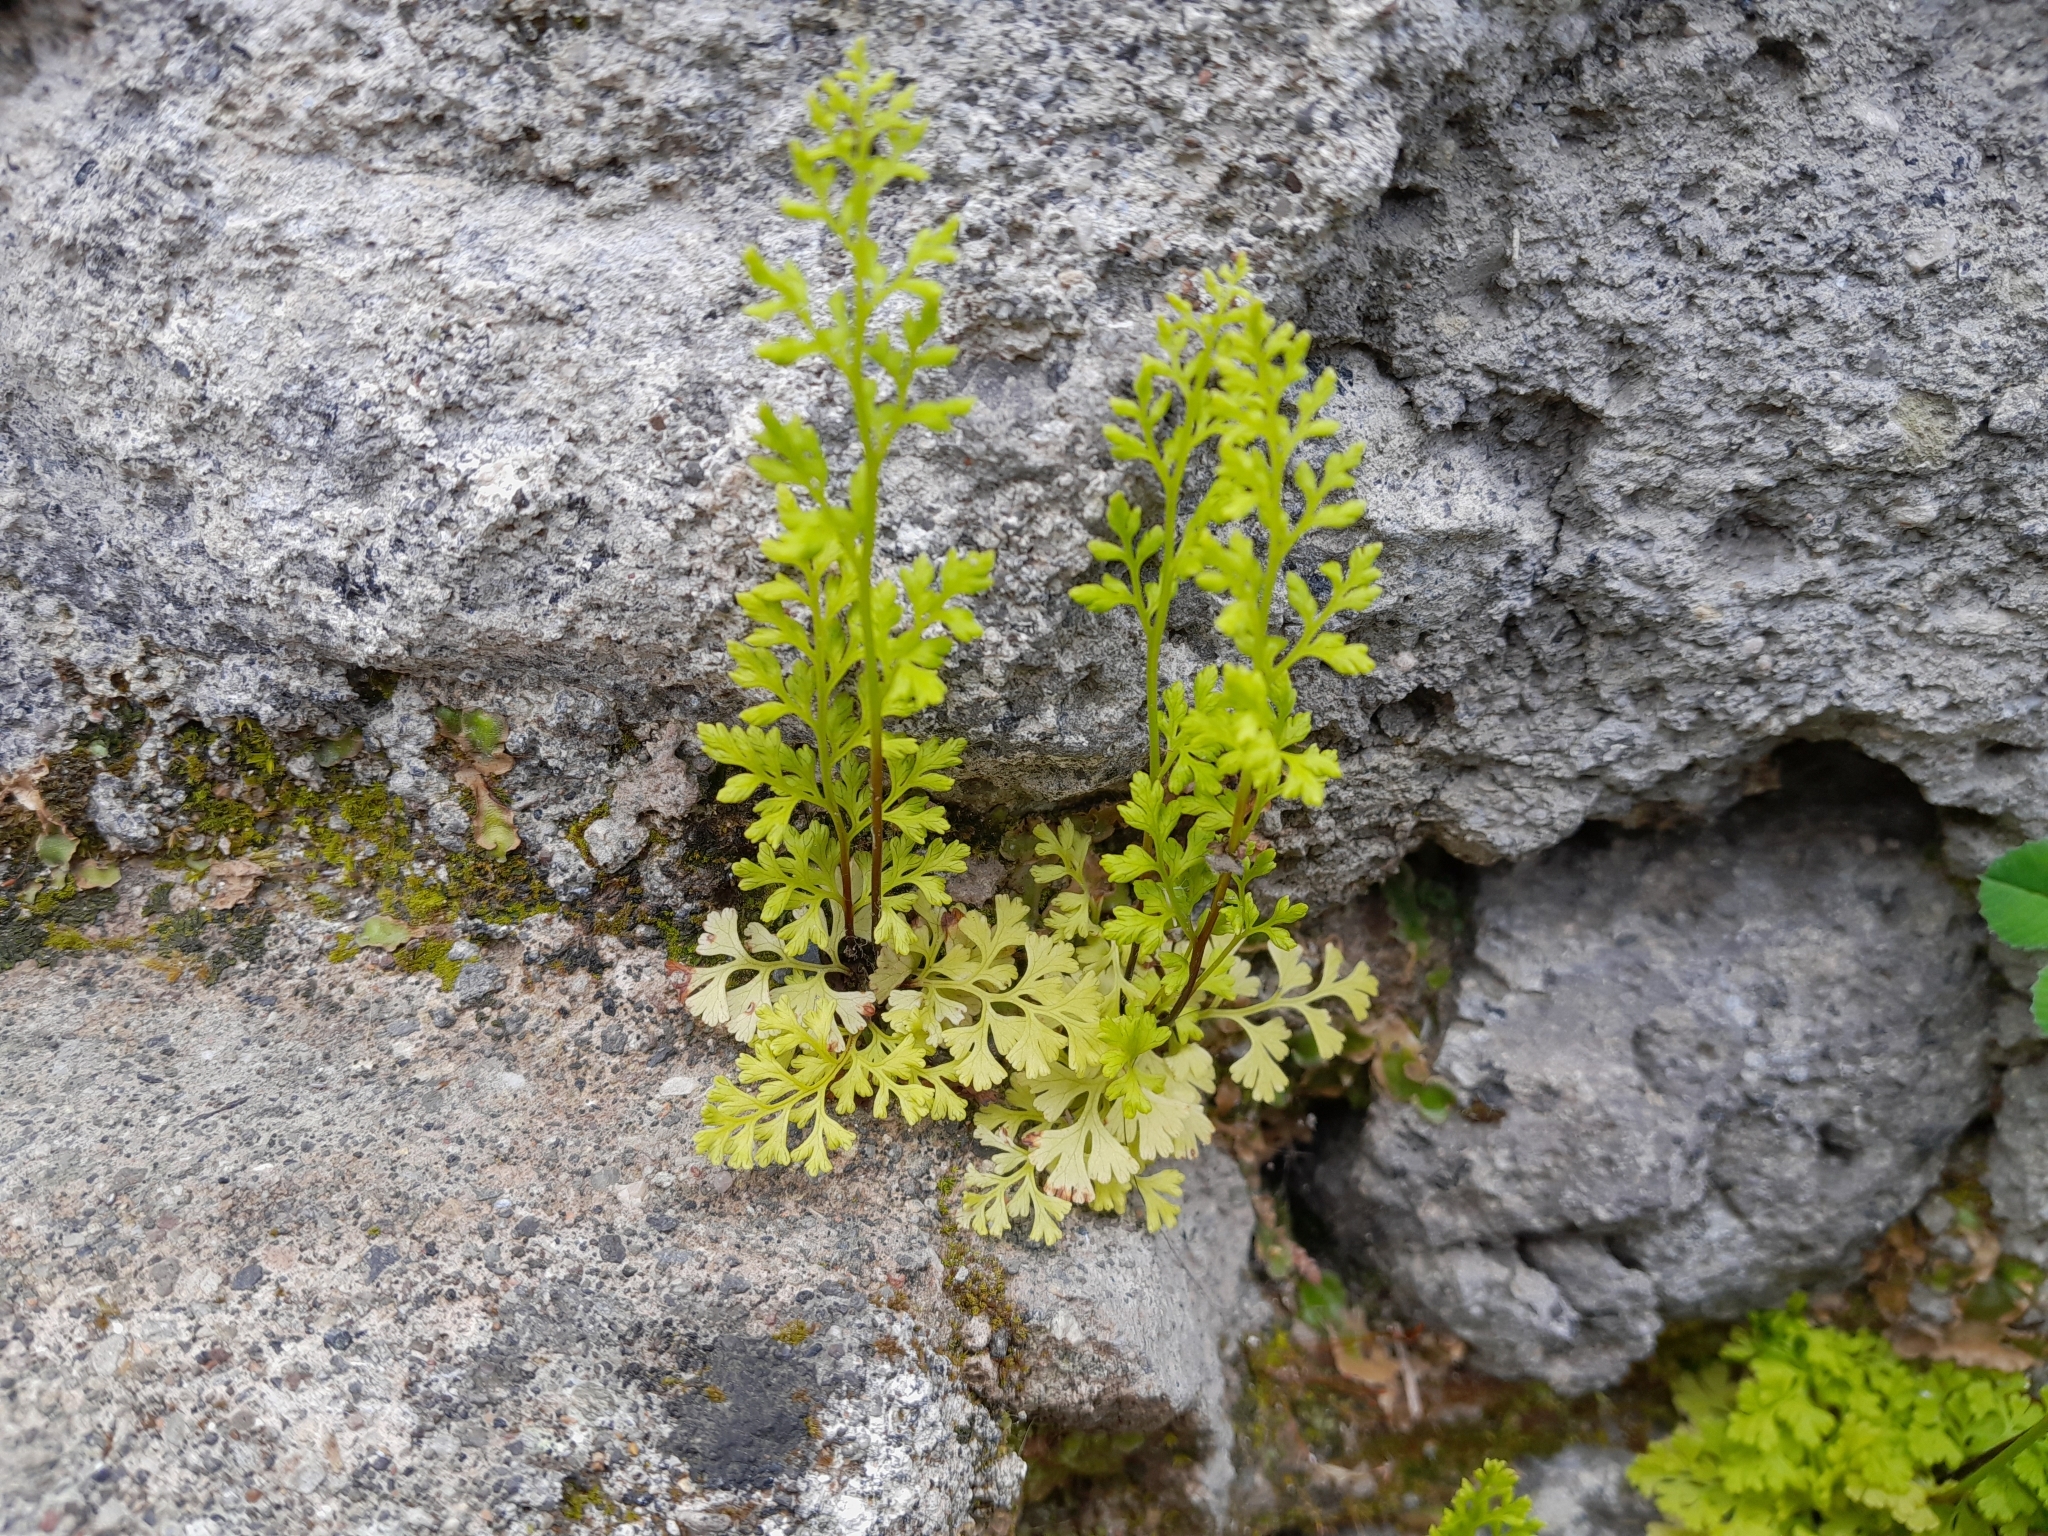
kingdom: Plantae
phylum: Tracheophyta
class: Polypodiopsida
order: Polypodiales
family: Pteridaceae
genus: Anogramma
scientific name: Anogramma leptophylla
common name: Jersey fern
